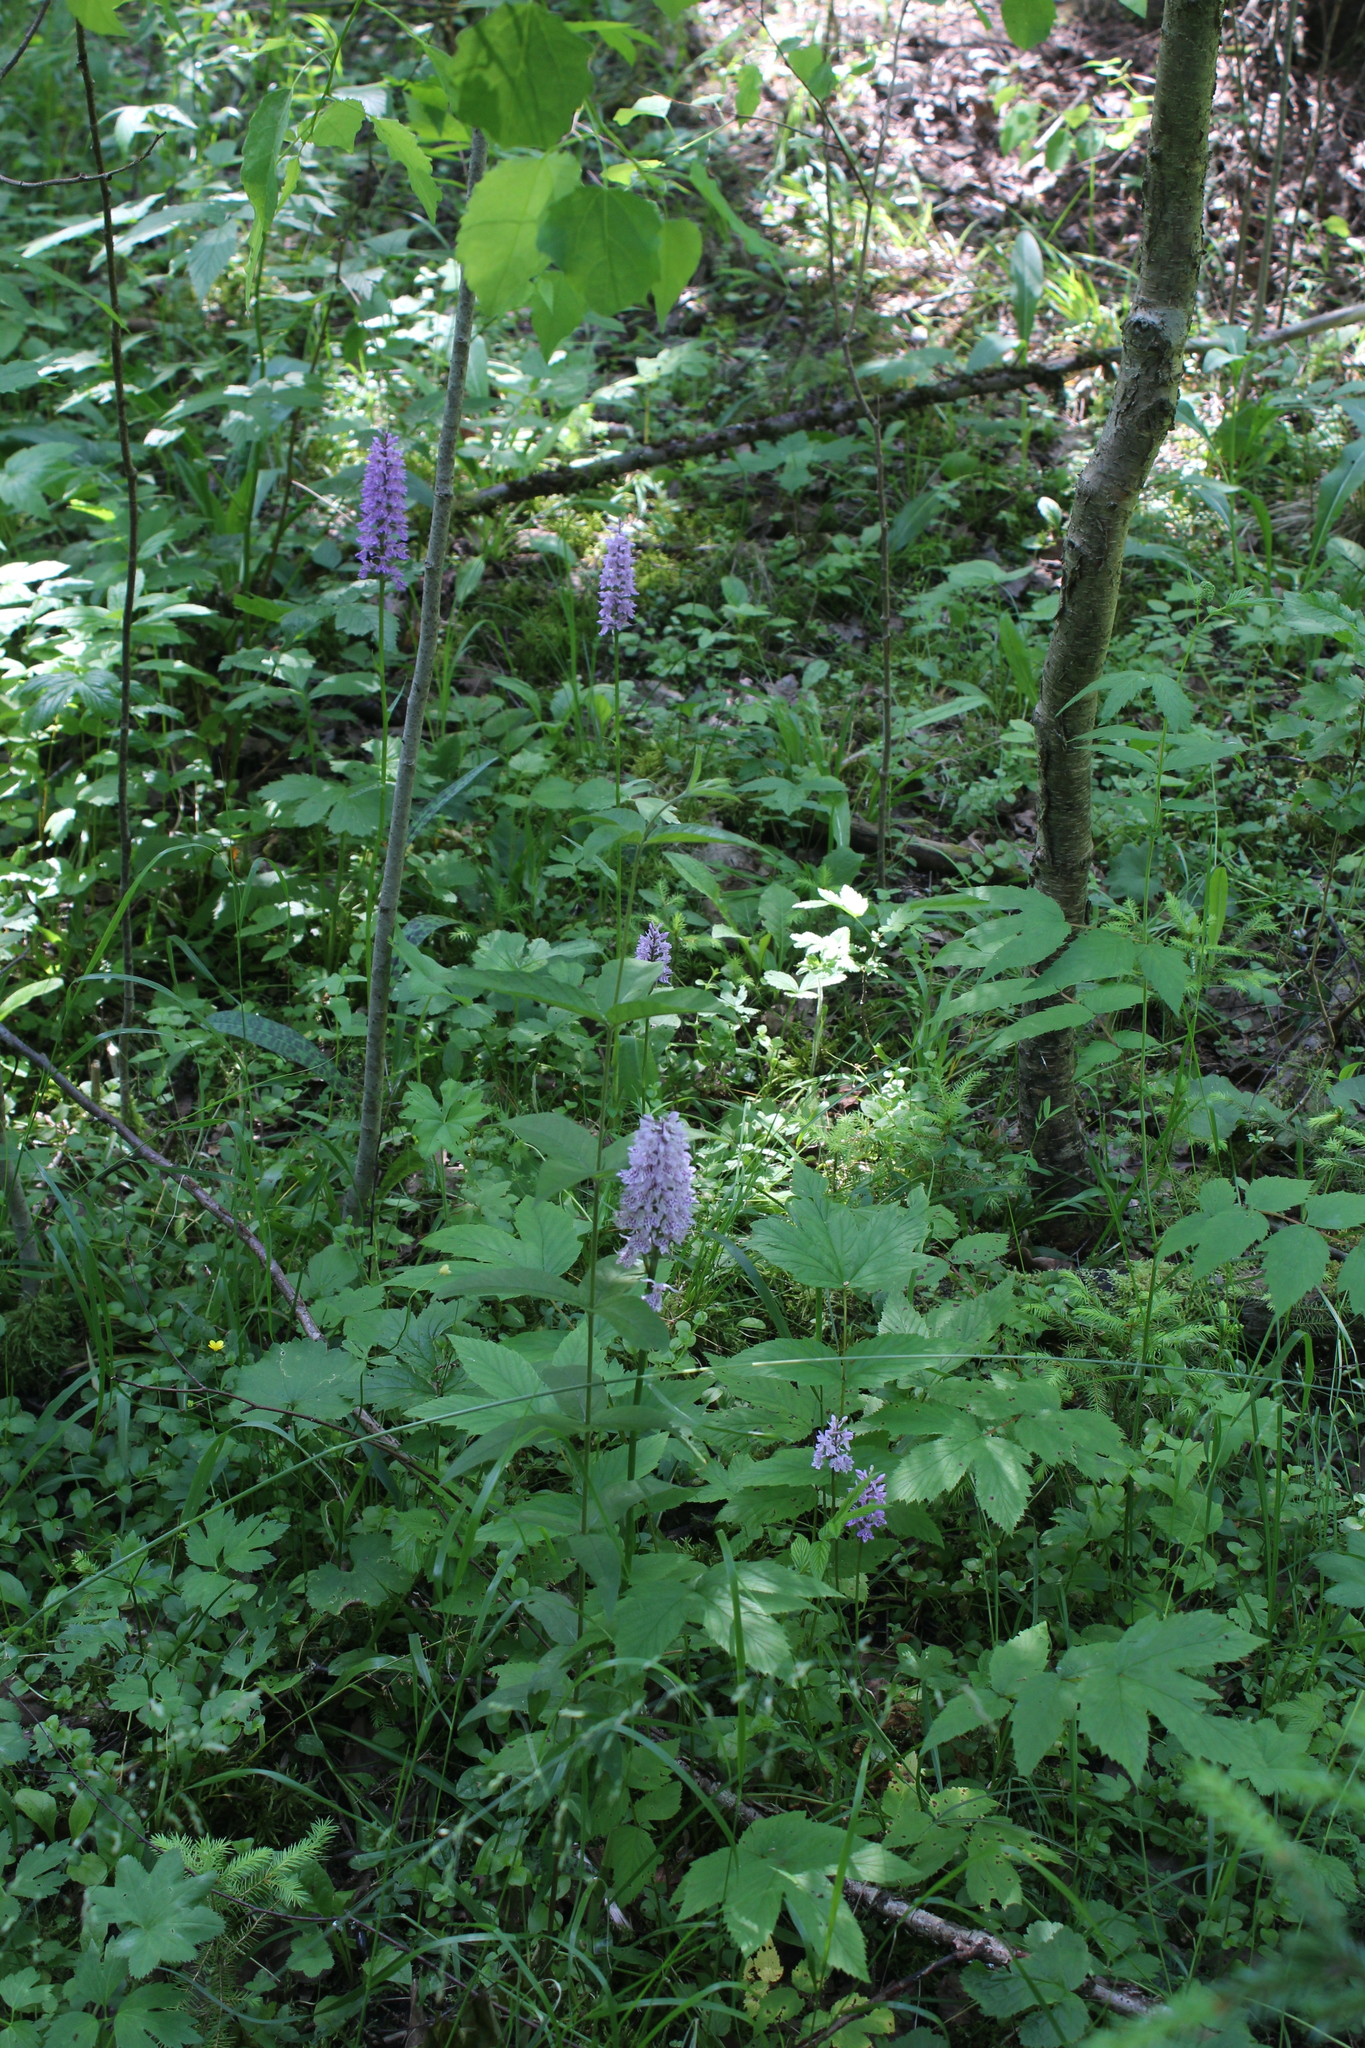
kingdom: Plantae
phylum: Tracheophyta
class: Liliopsida
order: Asparagales
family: Orchidaceae
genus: Dactylorhiza
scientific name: Dactylorhiza maculata
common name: Heath spotted-orchid
